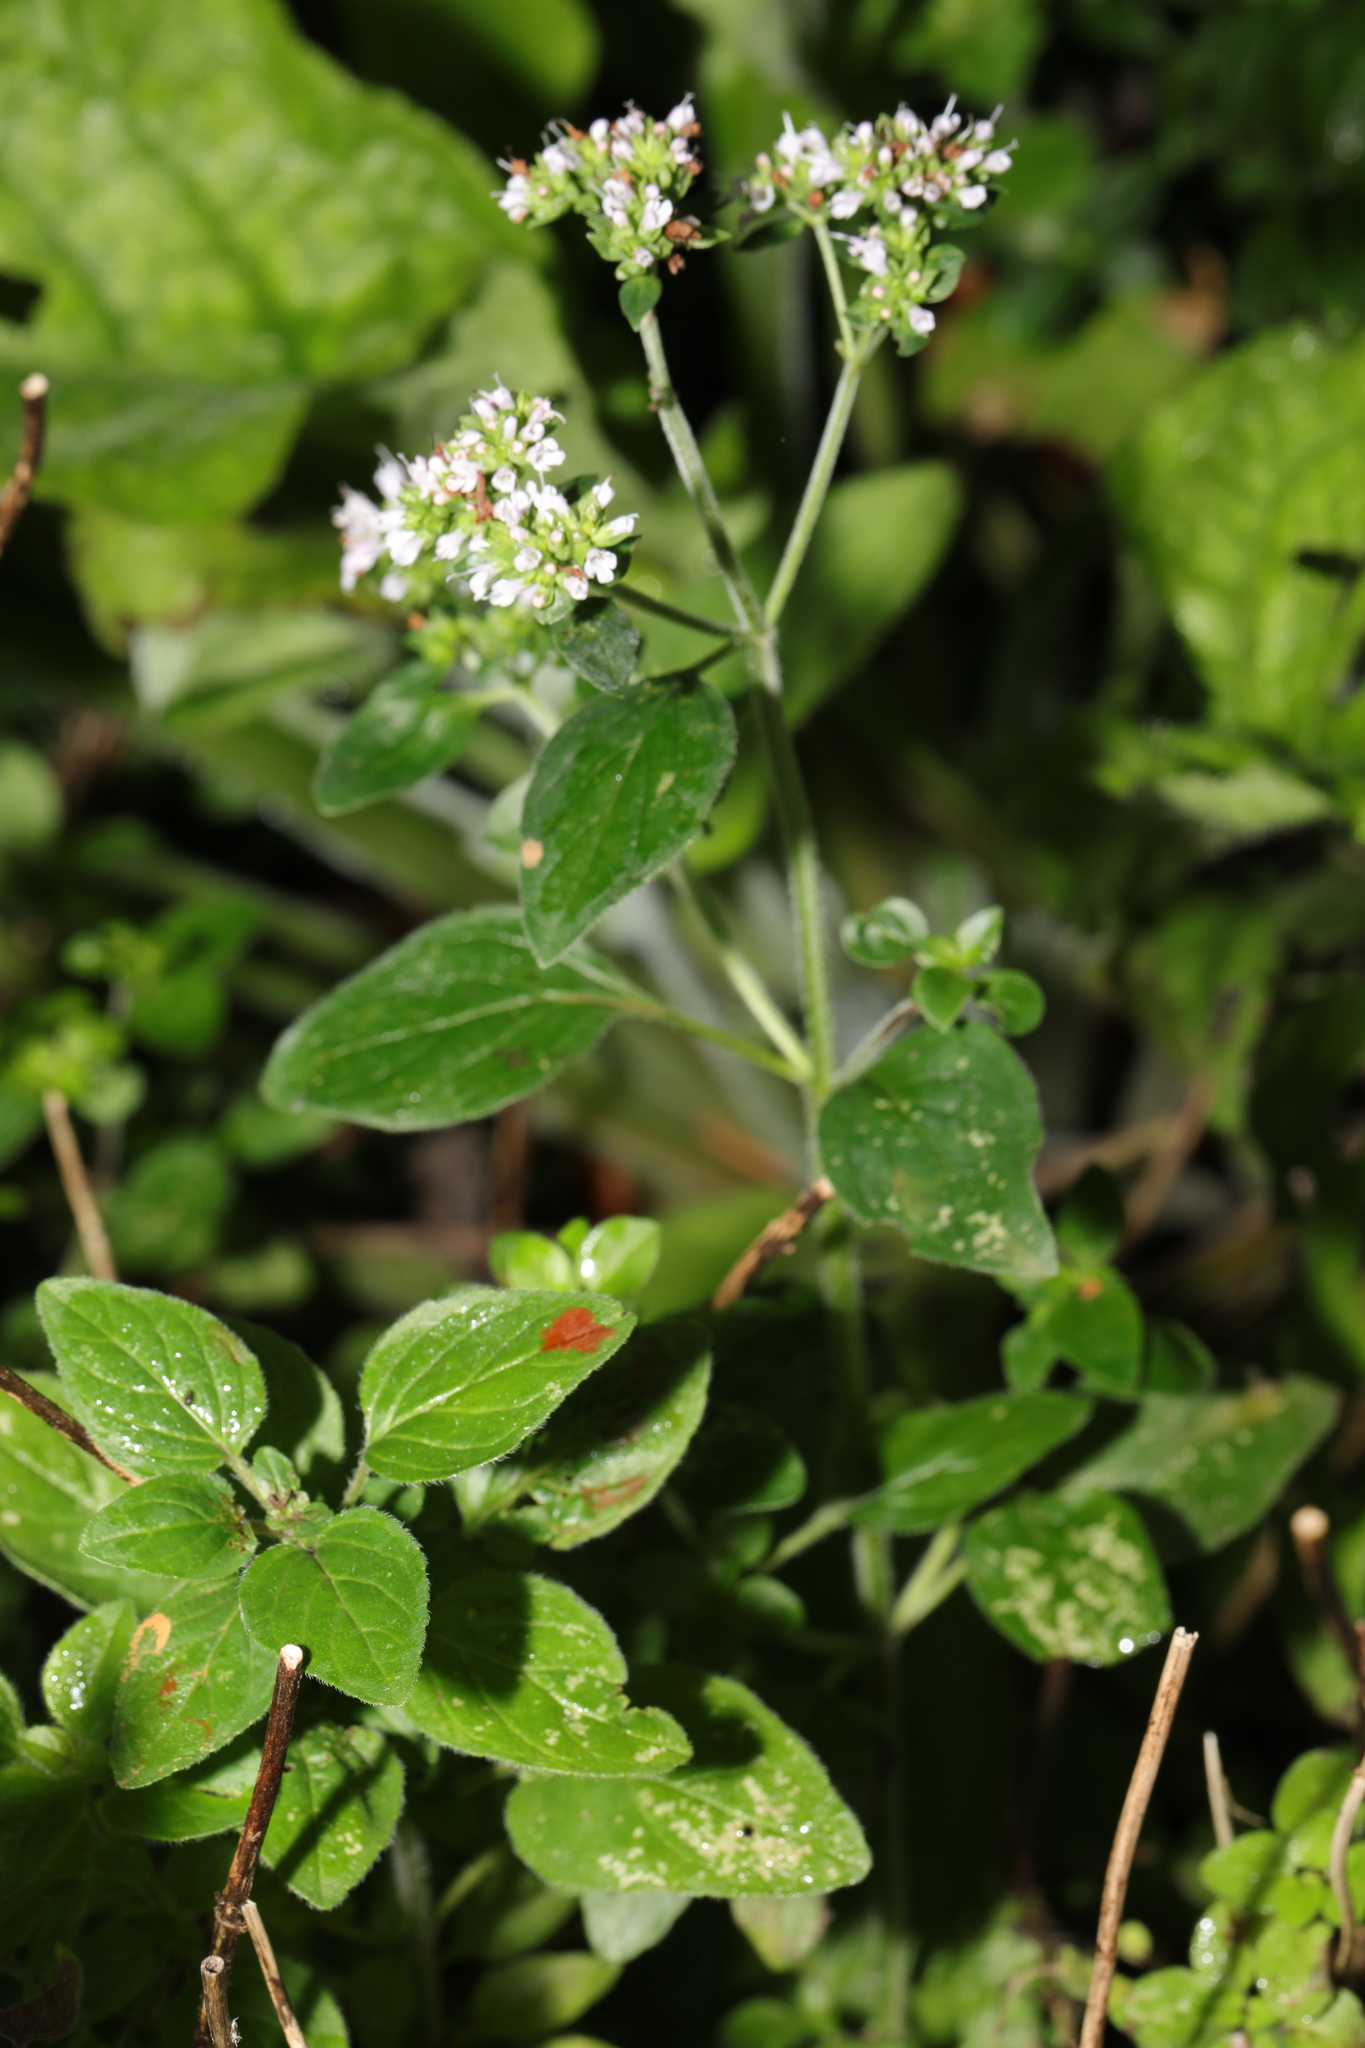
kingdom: Plantae
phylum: Tracheophyta
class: Magnoliopsida
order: Lamiales
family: Lamiaceae
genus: Origanum
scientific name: Origanum vulgare
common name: Wild marjoram
